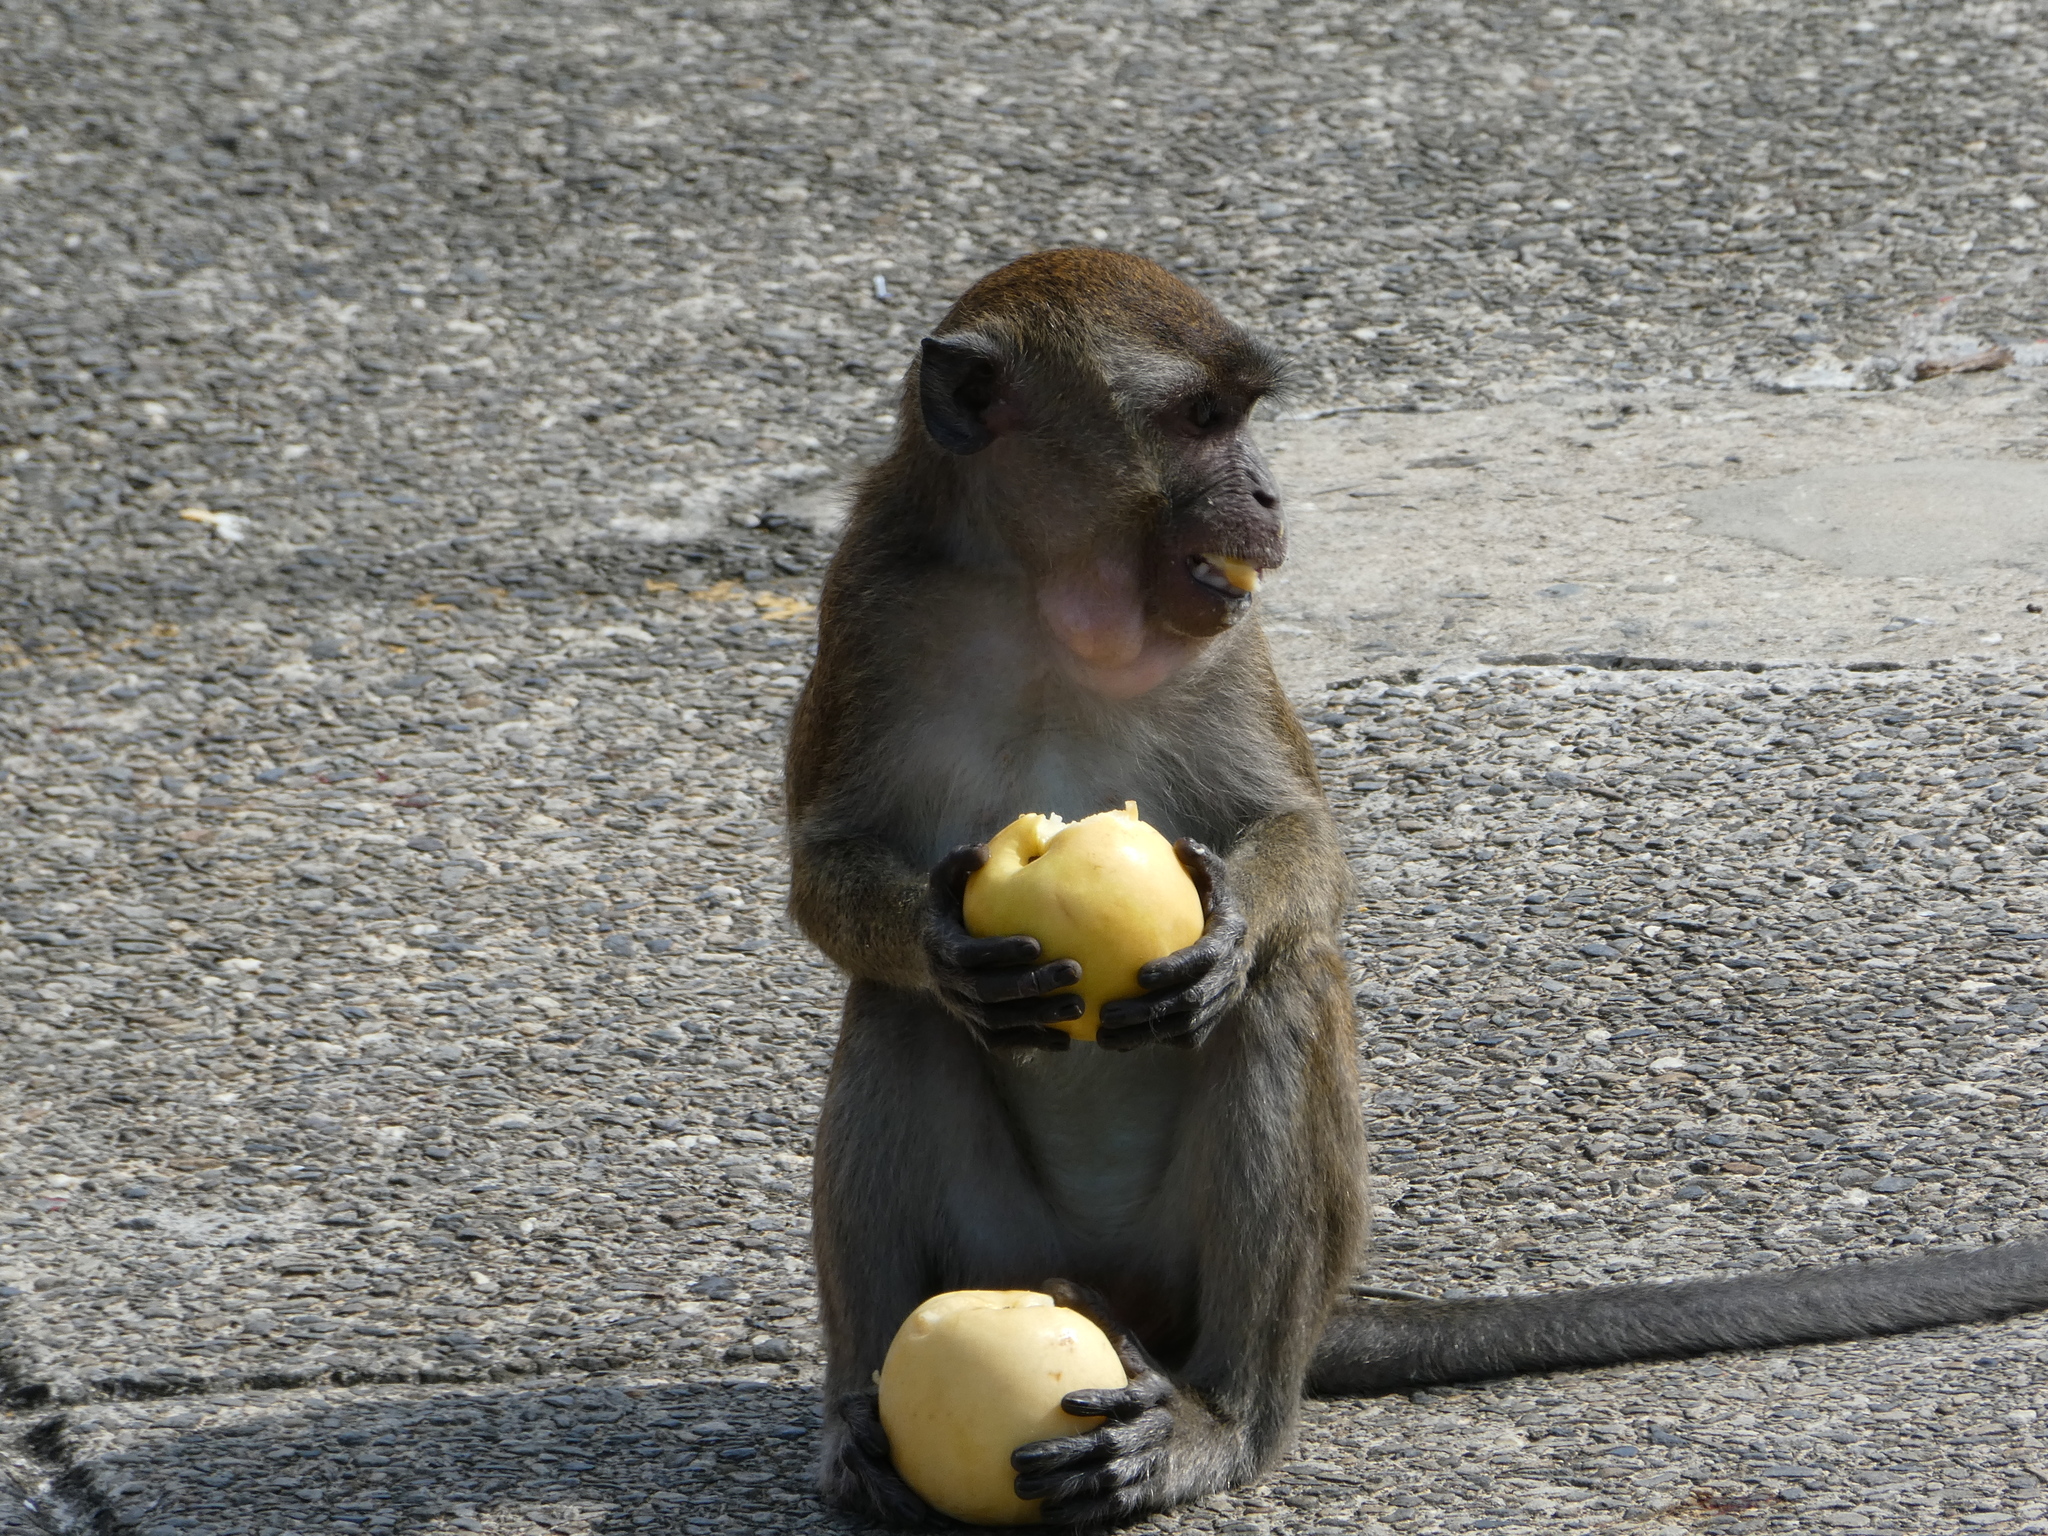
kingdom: Animalia
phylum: Chordata
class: Mammalia
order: Primates
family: Cercopithecidae
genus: Macaca
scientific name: Macaca fascicularis
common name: Crab-eating macaque
